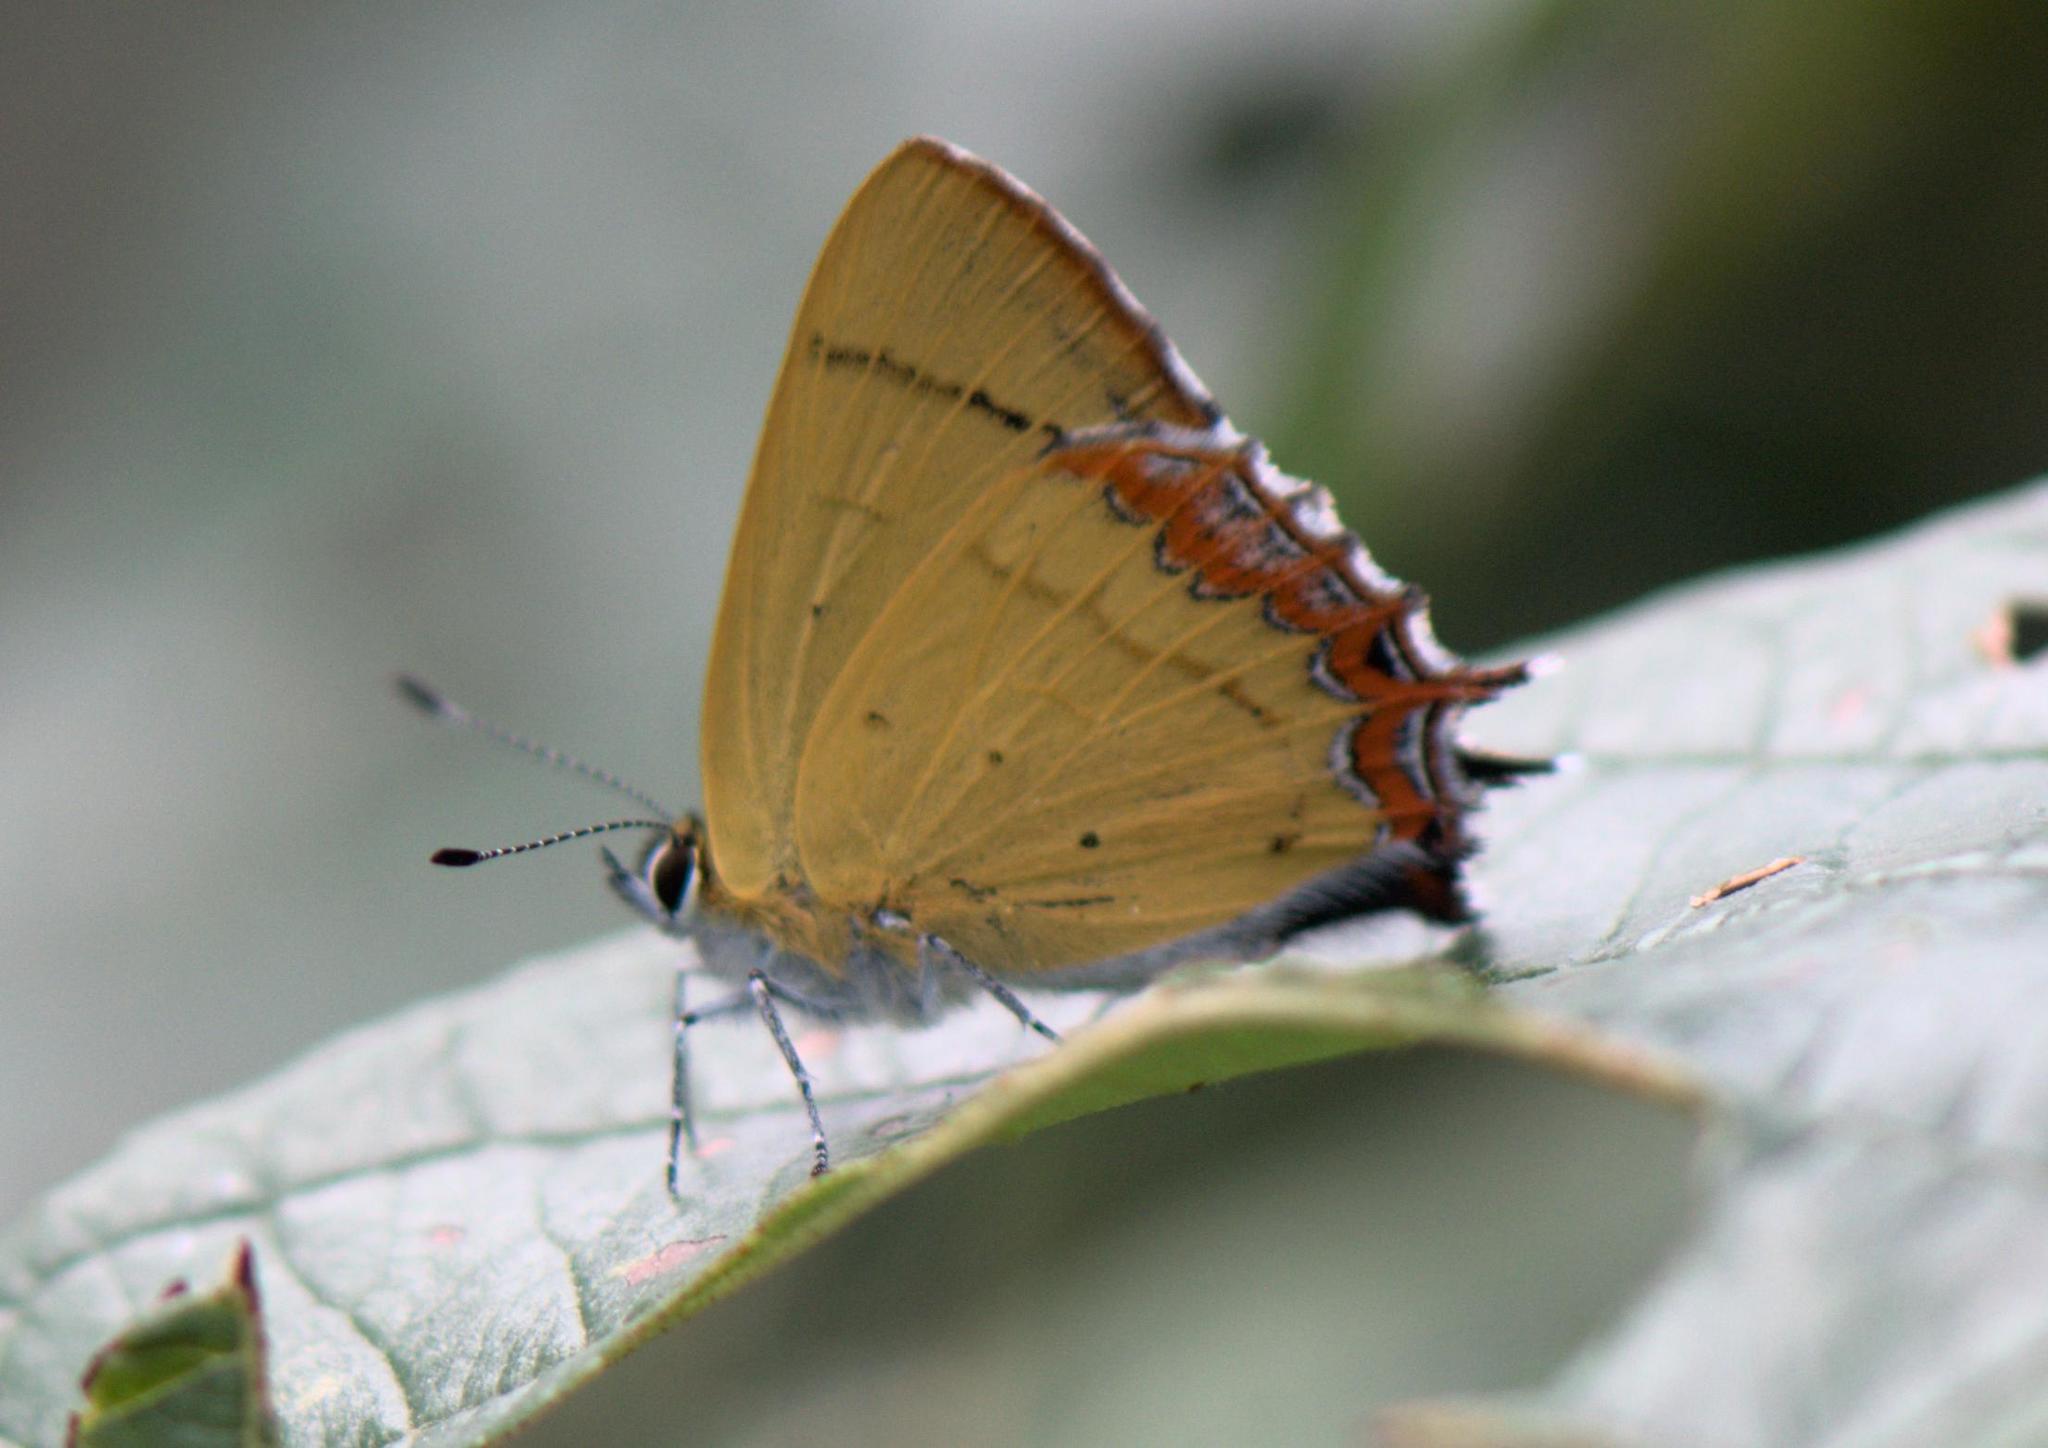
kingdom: Animalia
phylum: Arthropoda
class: Insecta
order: Lepidoptera
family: Lycaenidae
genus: Heliophorus
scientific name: Heliophorus
